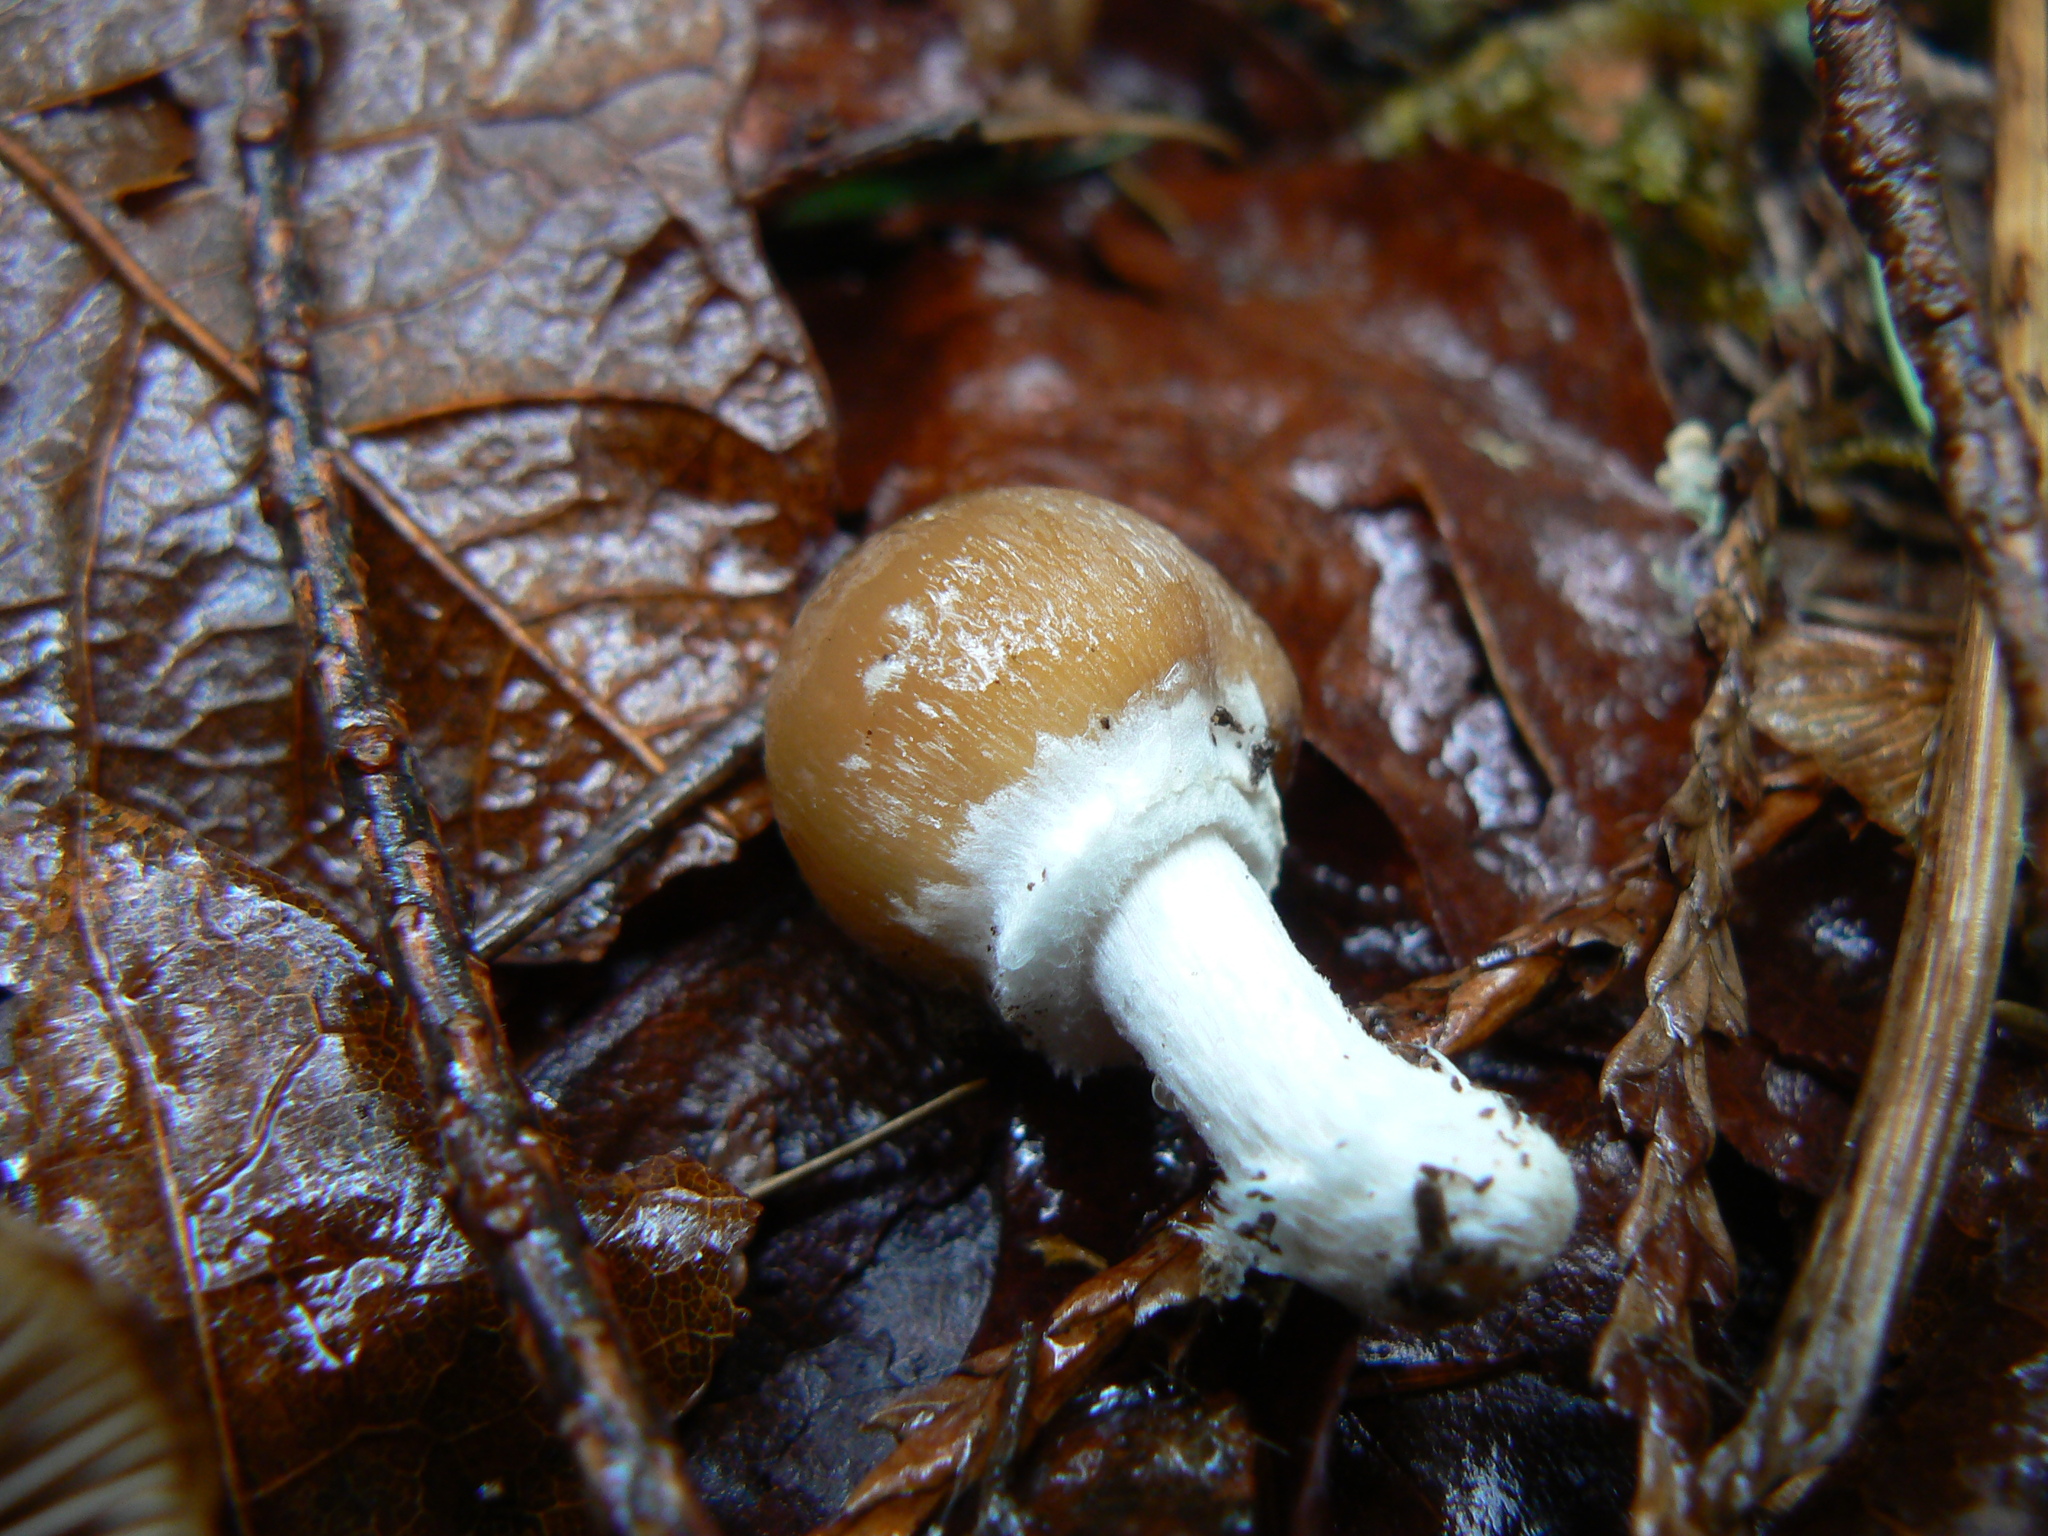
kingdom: Fungi
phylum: Basidiomycota
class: Agaricomycetes
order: Agaricales
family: Psathyrellaceae
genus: Psathyrella
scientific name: Psathyrella longipes
